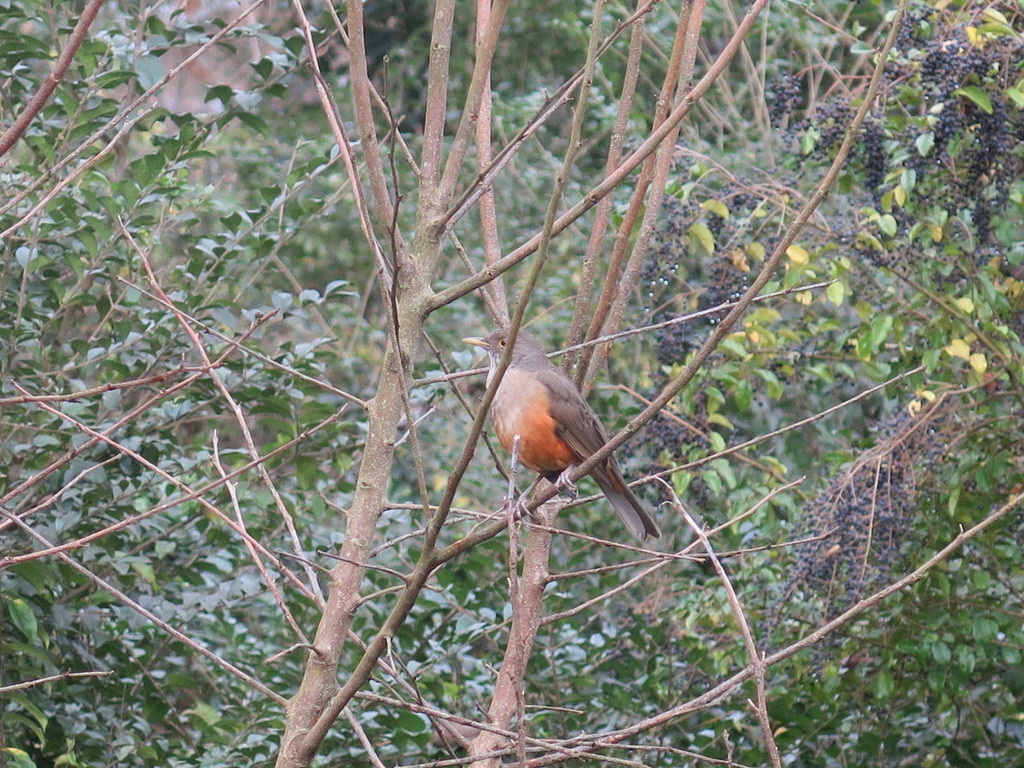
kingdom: Animalia
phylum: Chordata
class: Aves
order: Passeriformes
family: Turdidae
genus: Turdus
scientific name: Turdus rufiventris
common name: Rufous-bellied thrush
